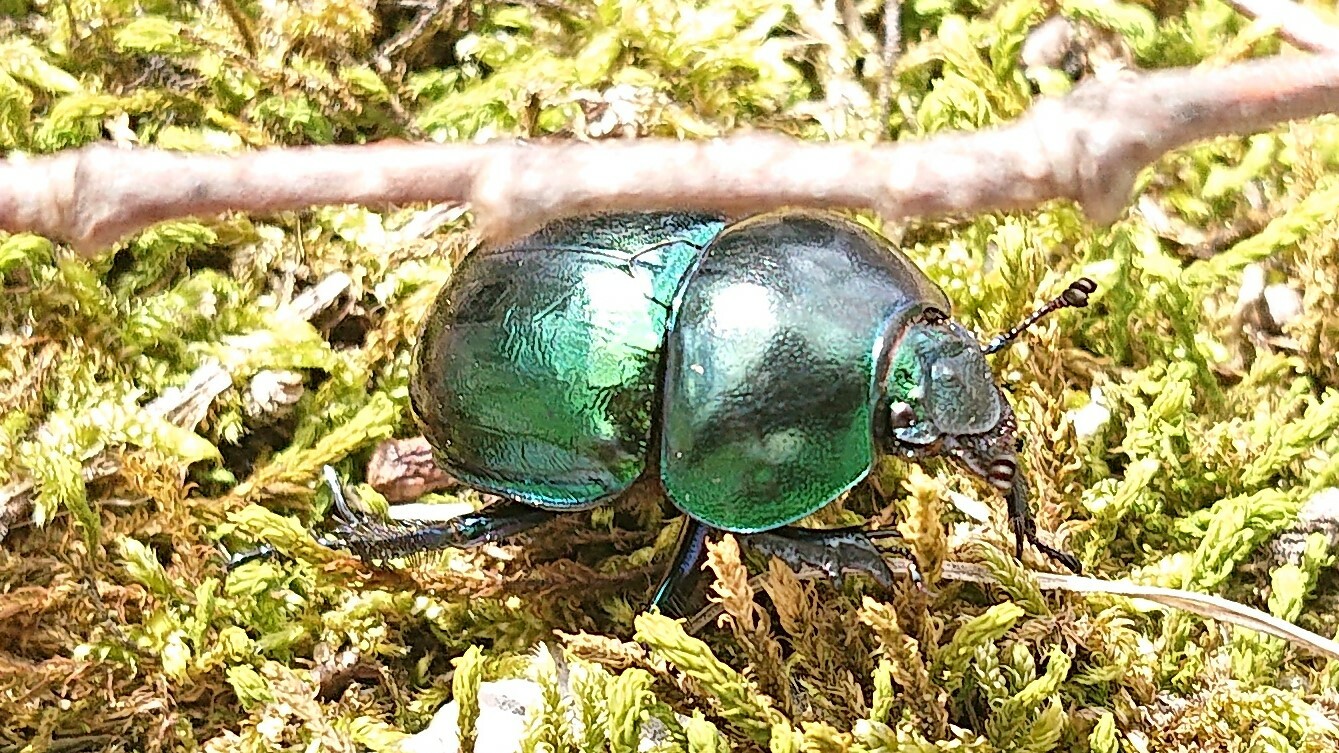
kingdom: Animalia
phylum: Arthropoda
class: Insecta
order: Coleoptera
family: Geotrupidae
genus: Trypocopris
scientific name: Trypocopris vernalis
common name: Spring dumbledor
